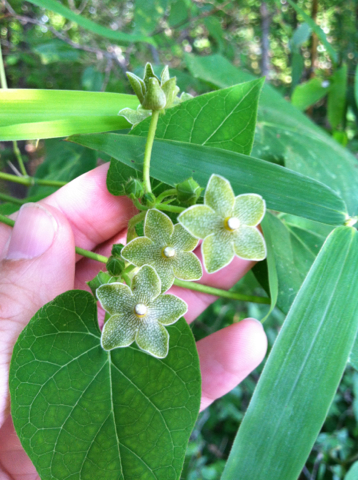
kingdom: Plantae
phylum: Tracheophyta
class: Magnoliopsida
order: Gentianales
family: Apocynaceae
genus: Dictyanthus
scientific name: Dictyanthus reticulatus
